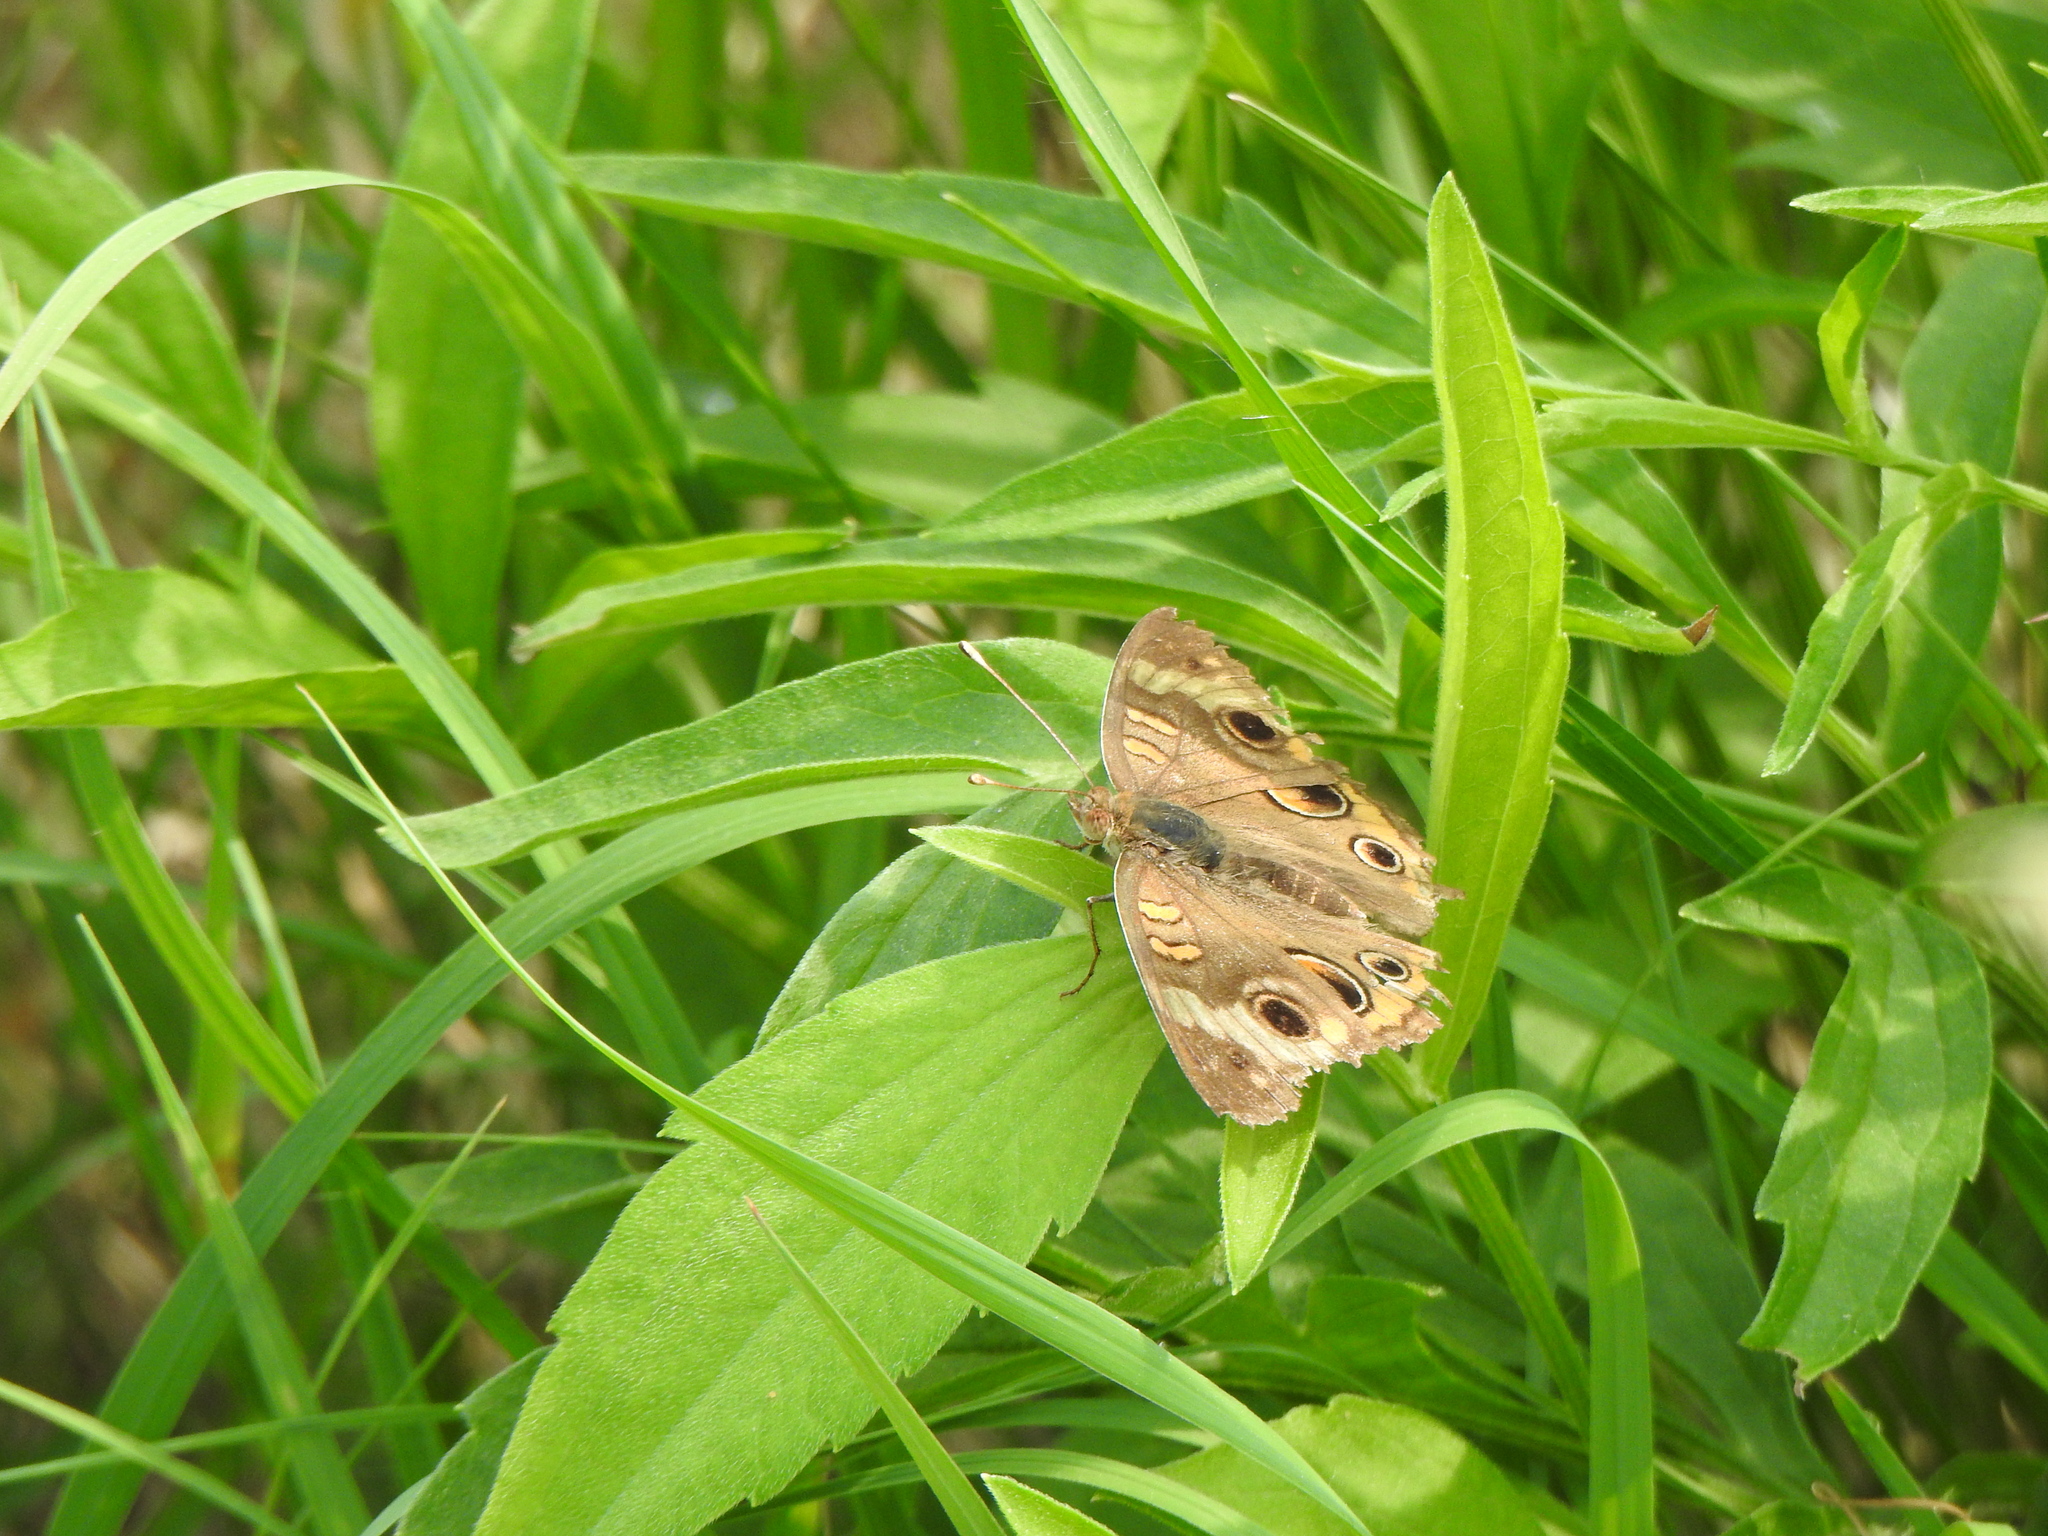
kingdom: Animalia
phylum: Arthropoda
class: Insecta
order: Lepidoptera
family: Nymphalidae
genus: Junonia
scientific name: Junonia coenia
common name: Common buckeye
